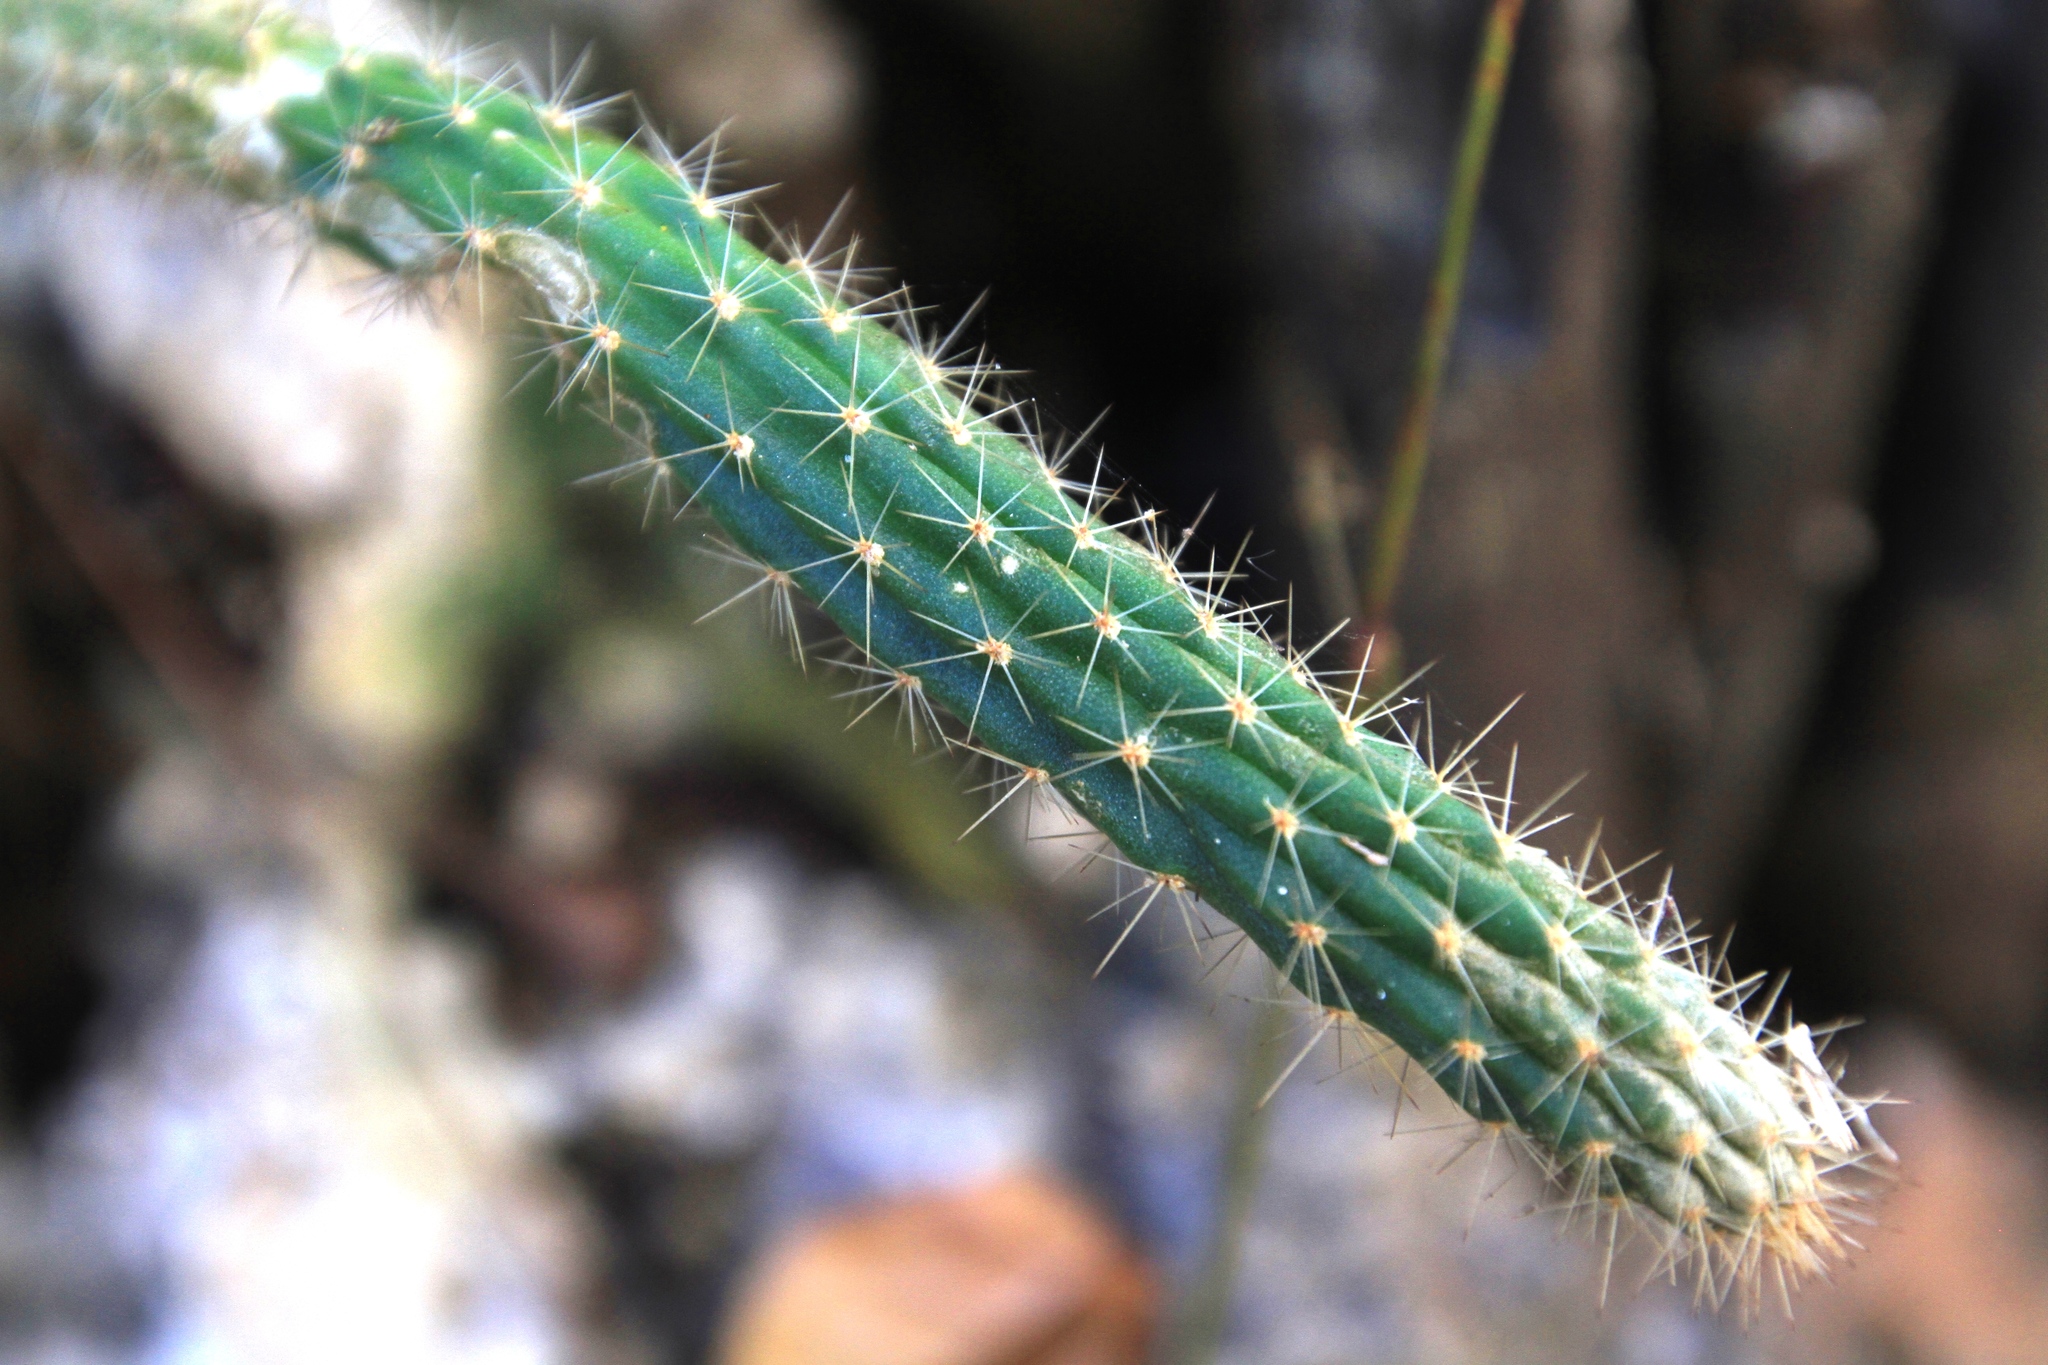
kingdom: Plantae
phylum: Tracheophyta
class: Magnoliopsida
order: Caryophyllales
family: Cactaceae
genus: Harrisia
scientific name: Harrisia divaricata
